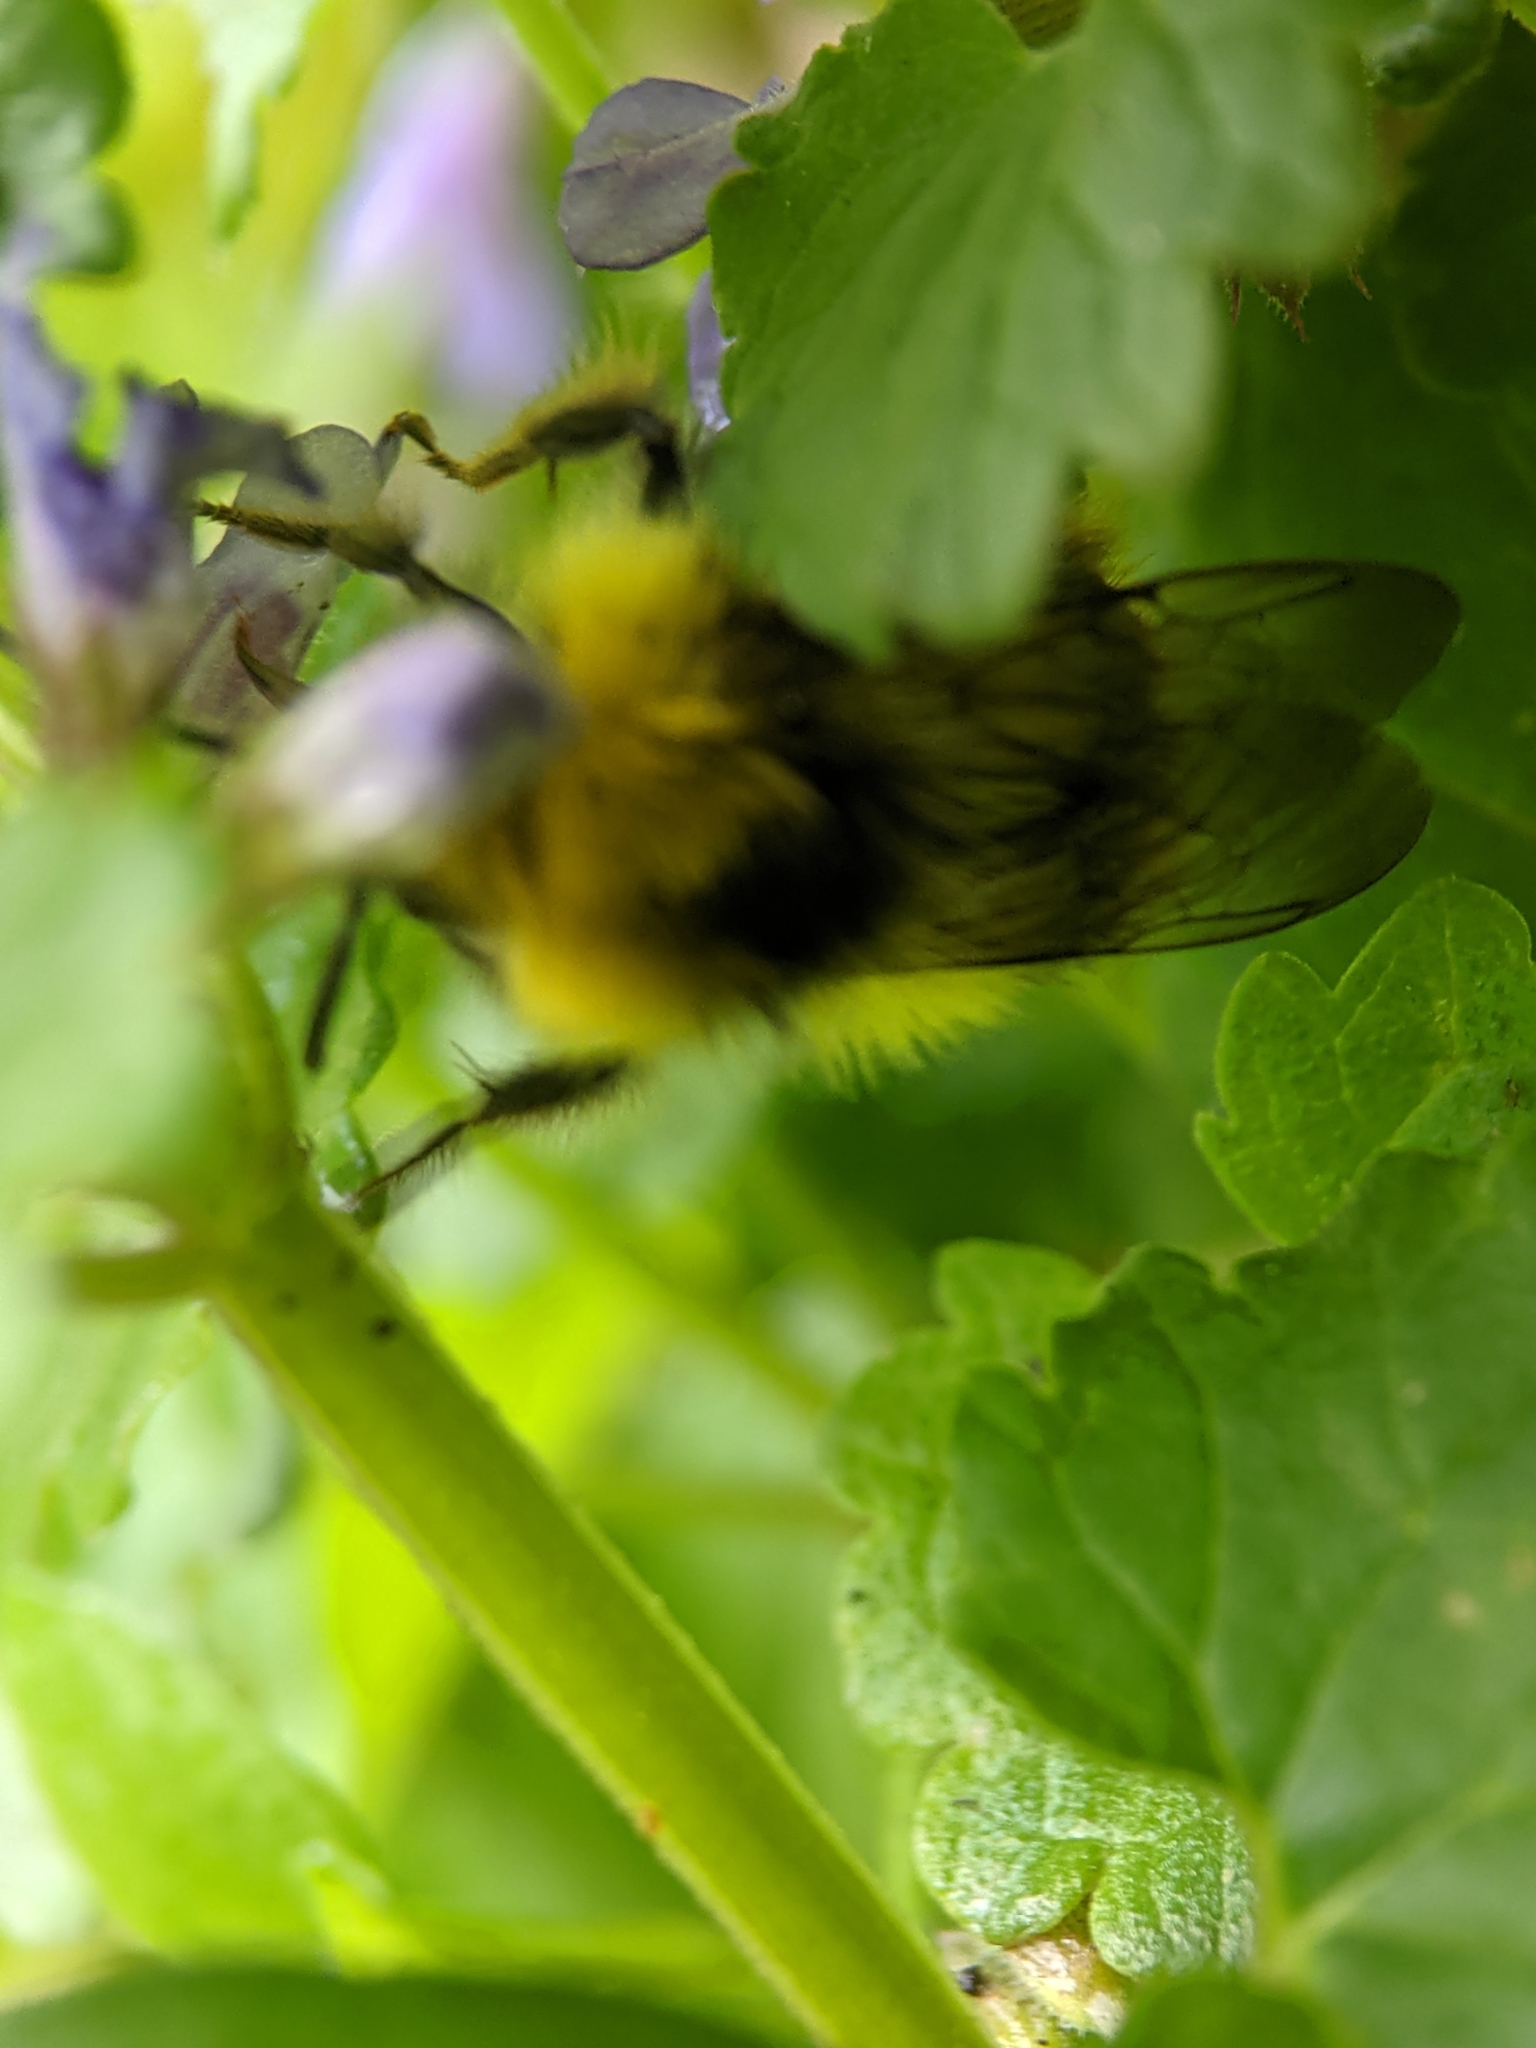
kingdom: Animalia
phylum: Arthropoda
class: Insecta
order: Hymenoptera
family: Apidae
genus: Bombus
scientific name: Bombus pratorum
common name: Early humble-bee
